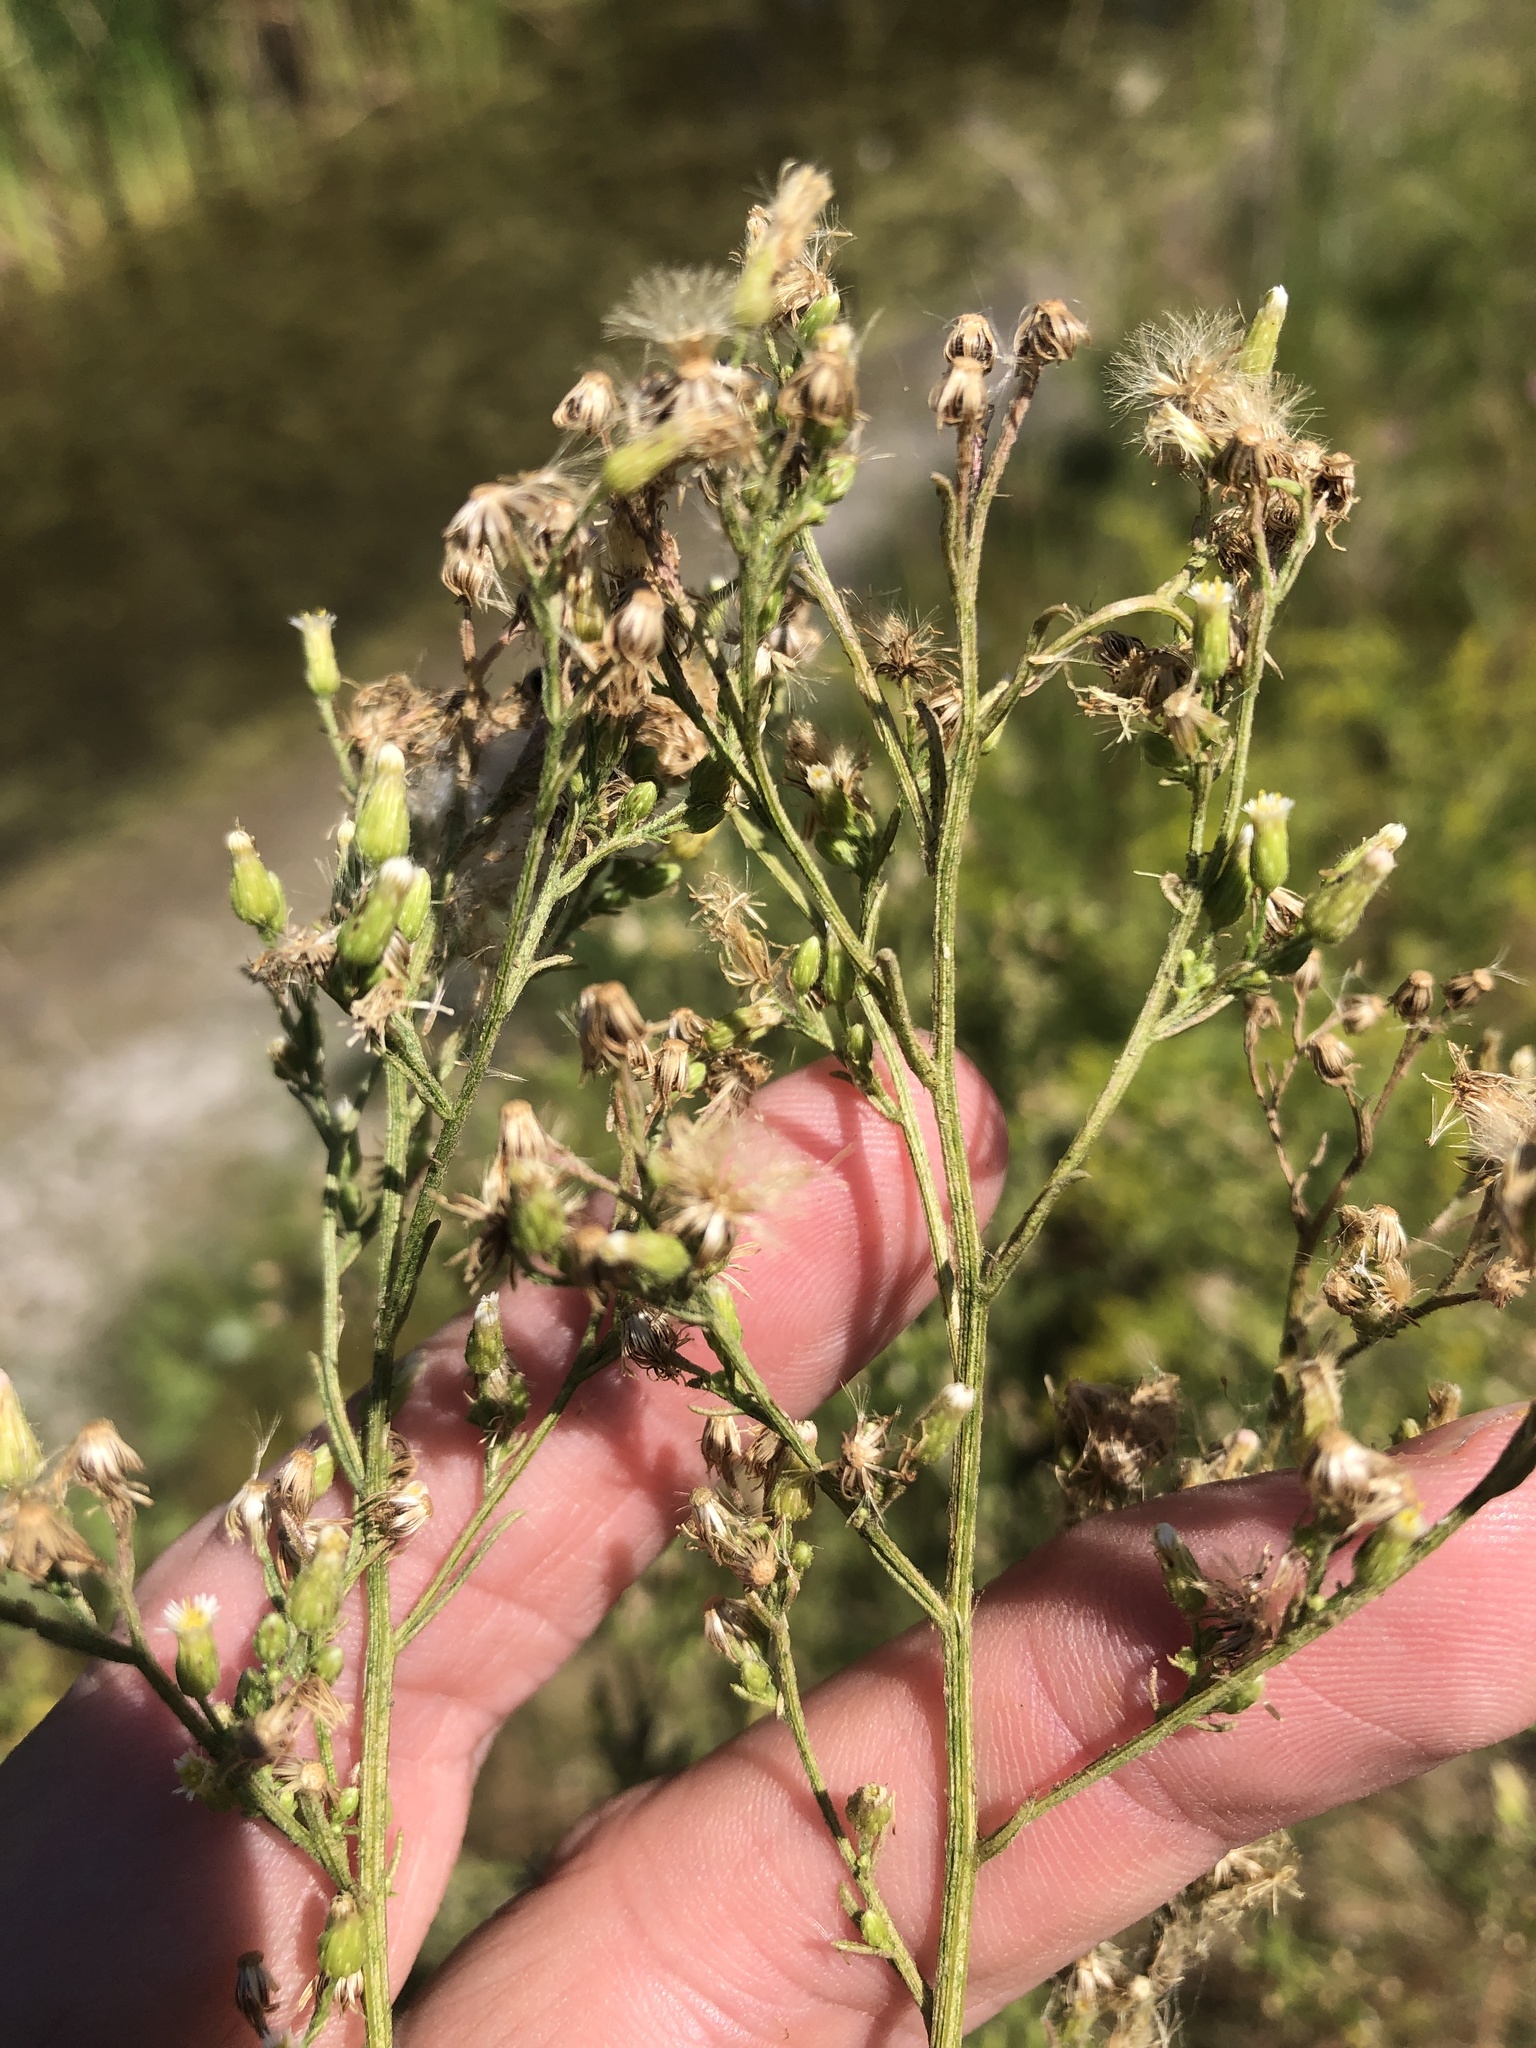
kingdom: Plantae
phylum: Tracheophyta
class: Magnoliopsida
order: Asterales
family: Asteraceae
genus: Erigeron
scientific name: Erigeron canadensis
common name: Canadian fleabane
